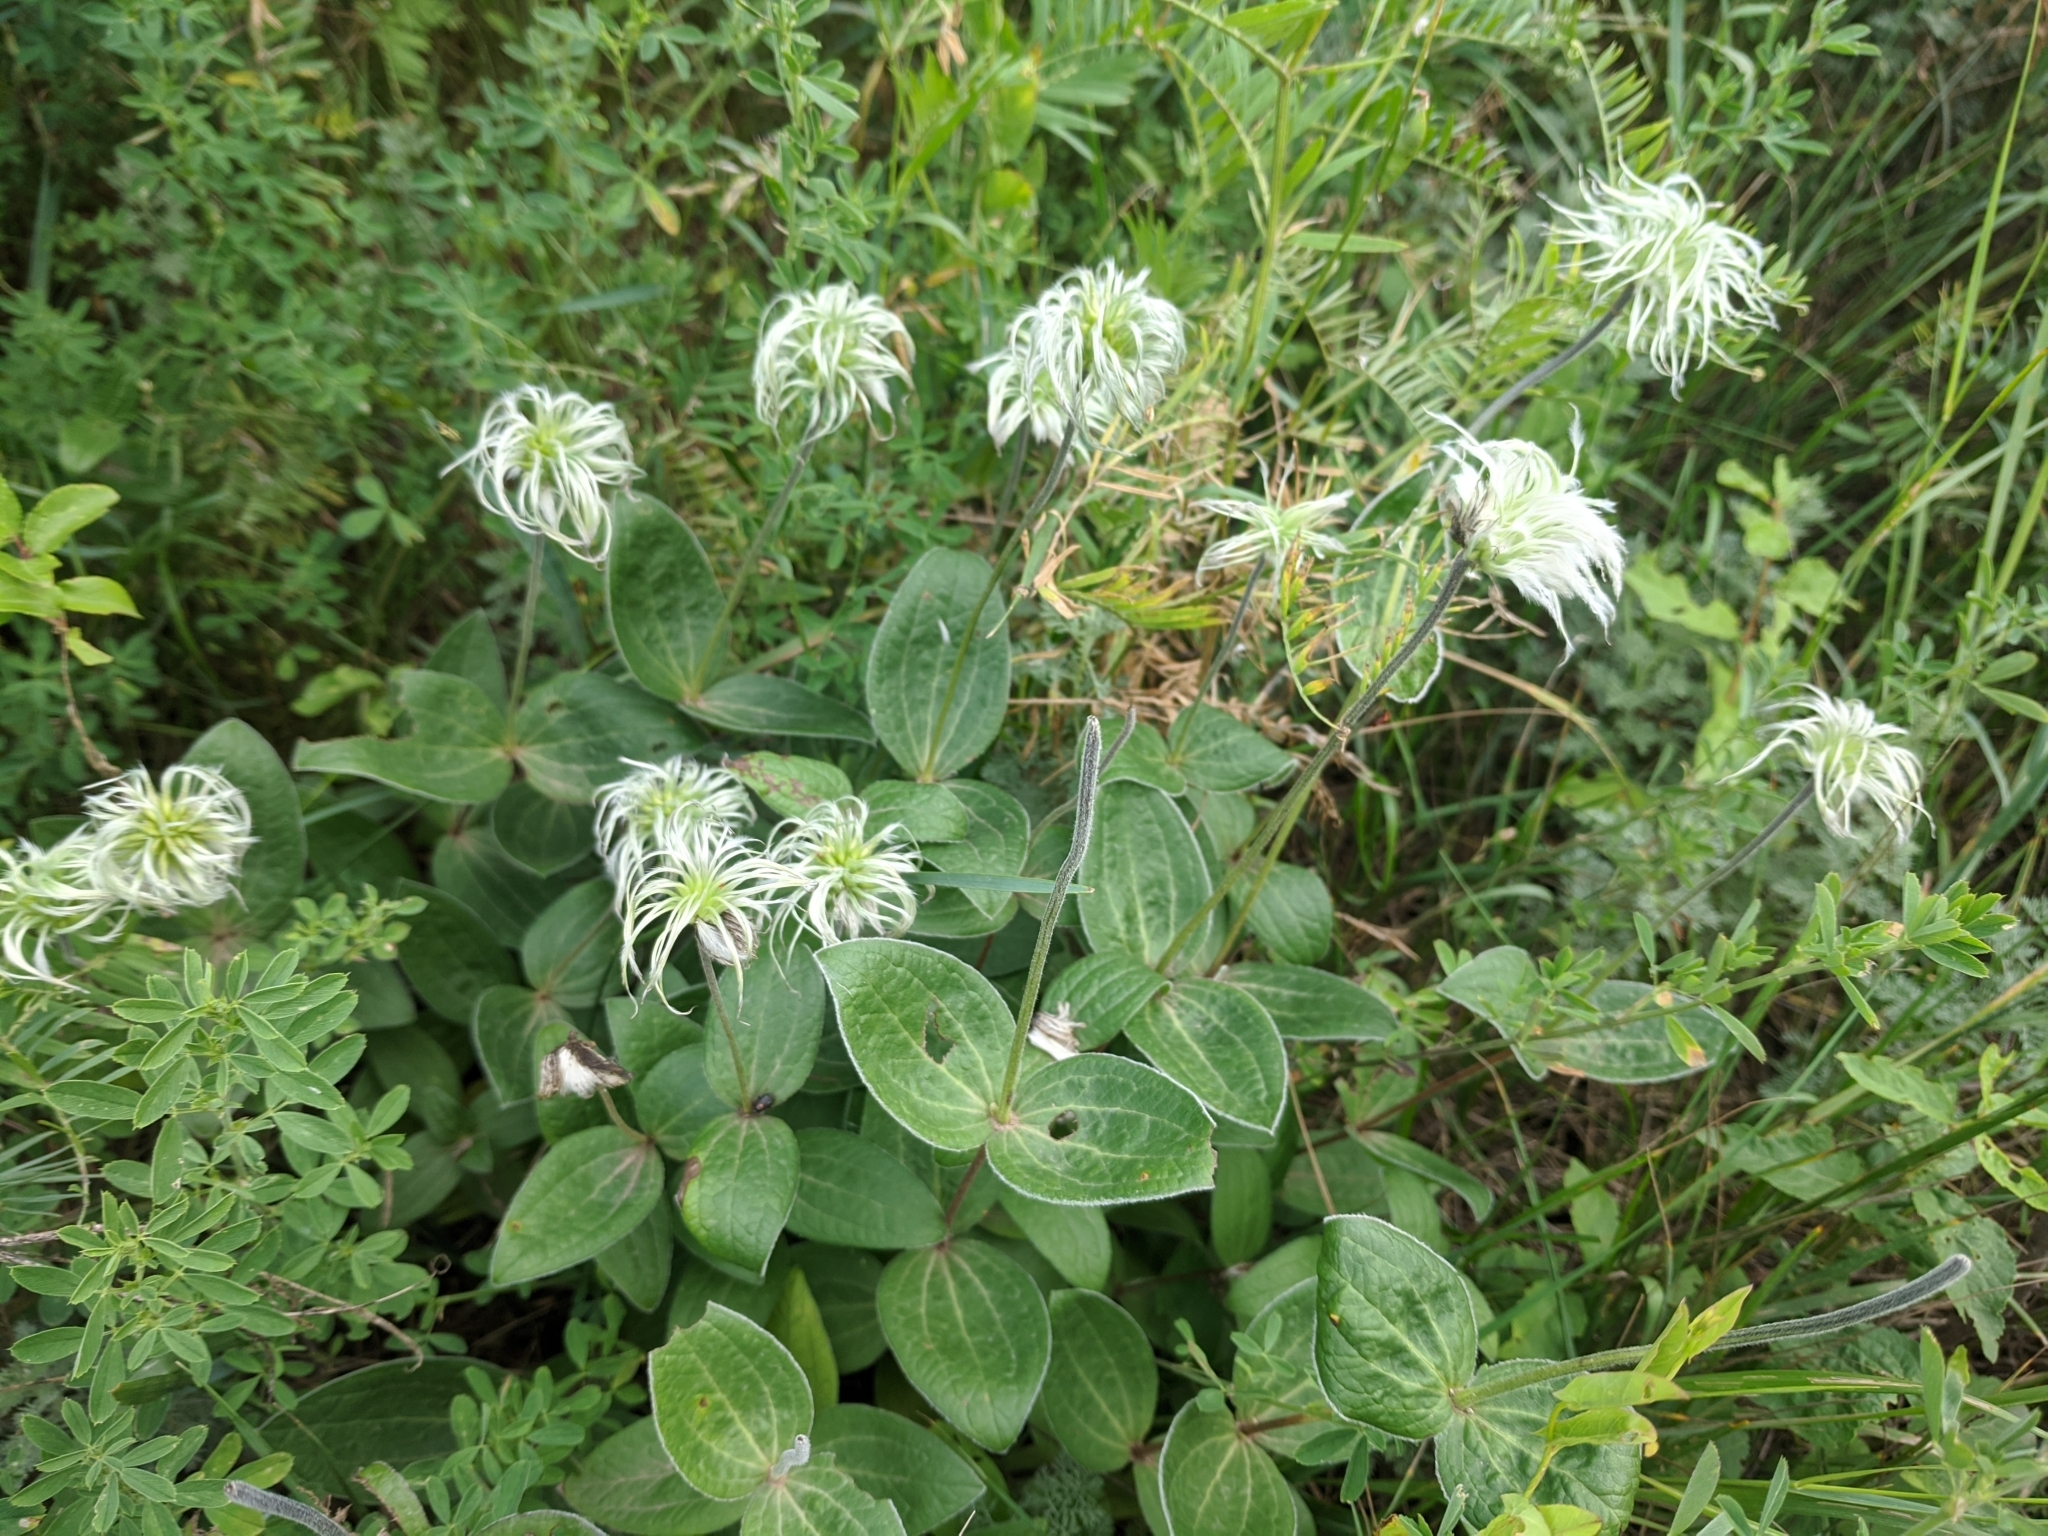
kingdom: Plantae
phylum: Tracheophyta
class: Magnoliopsida
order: Ranunculales
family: Ranunculaceae
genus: Clematis
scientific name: Clematis integrifolia
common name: Solitary clematis
